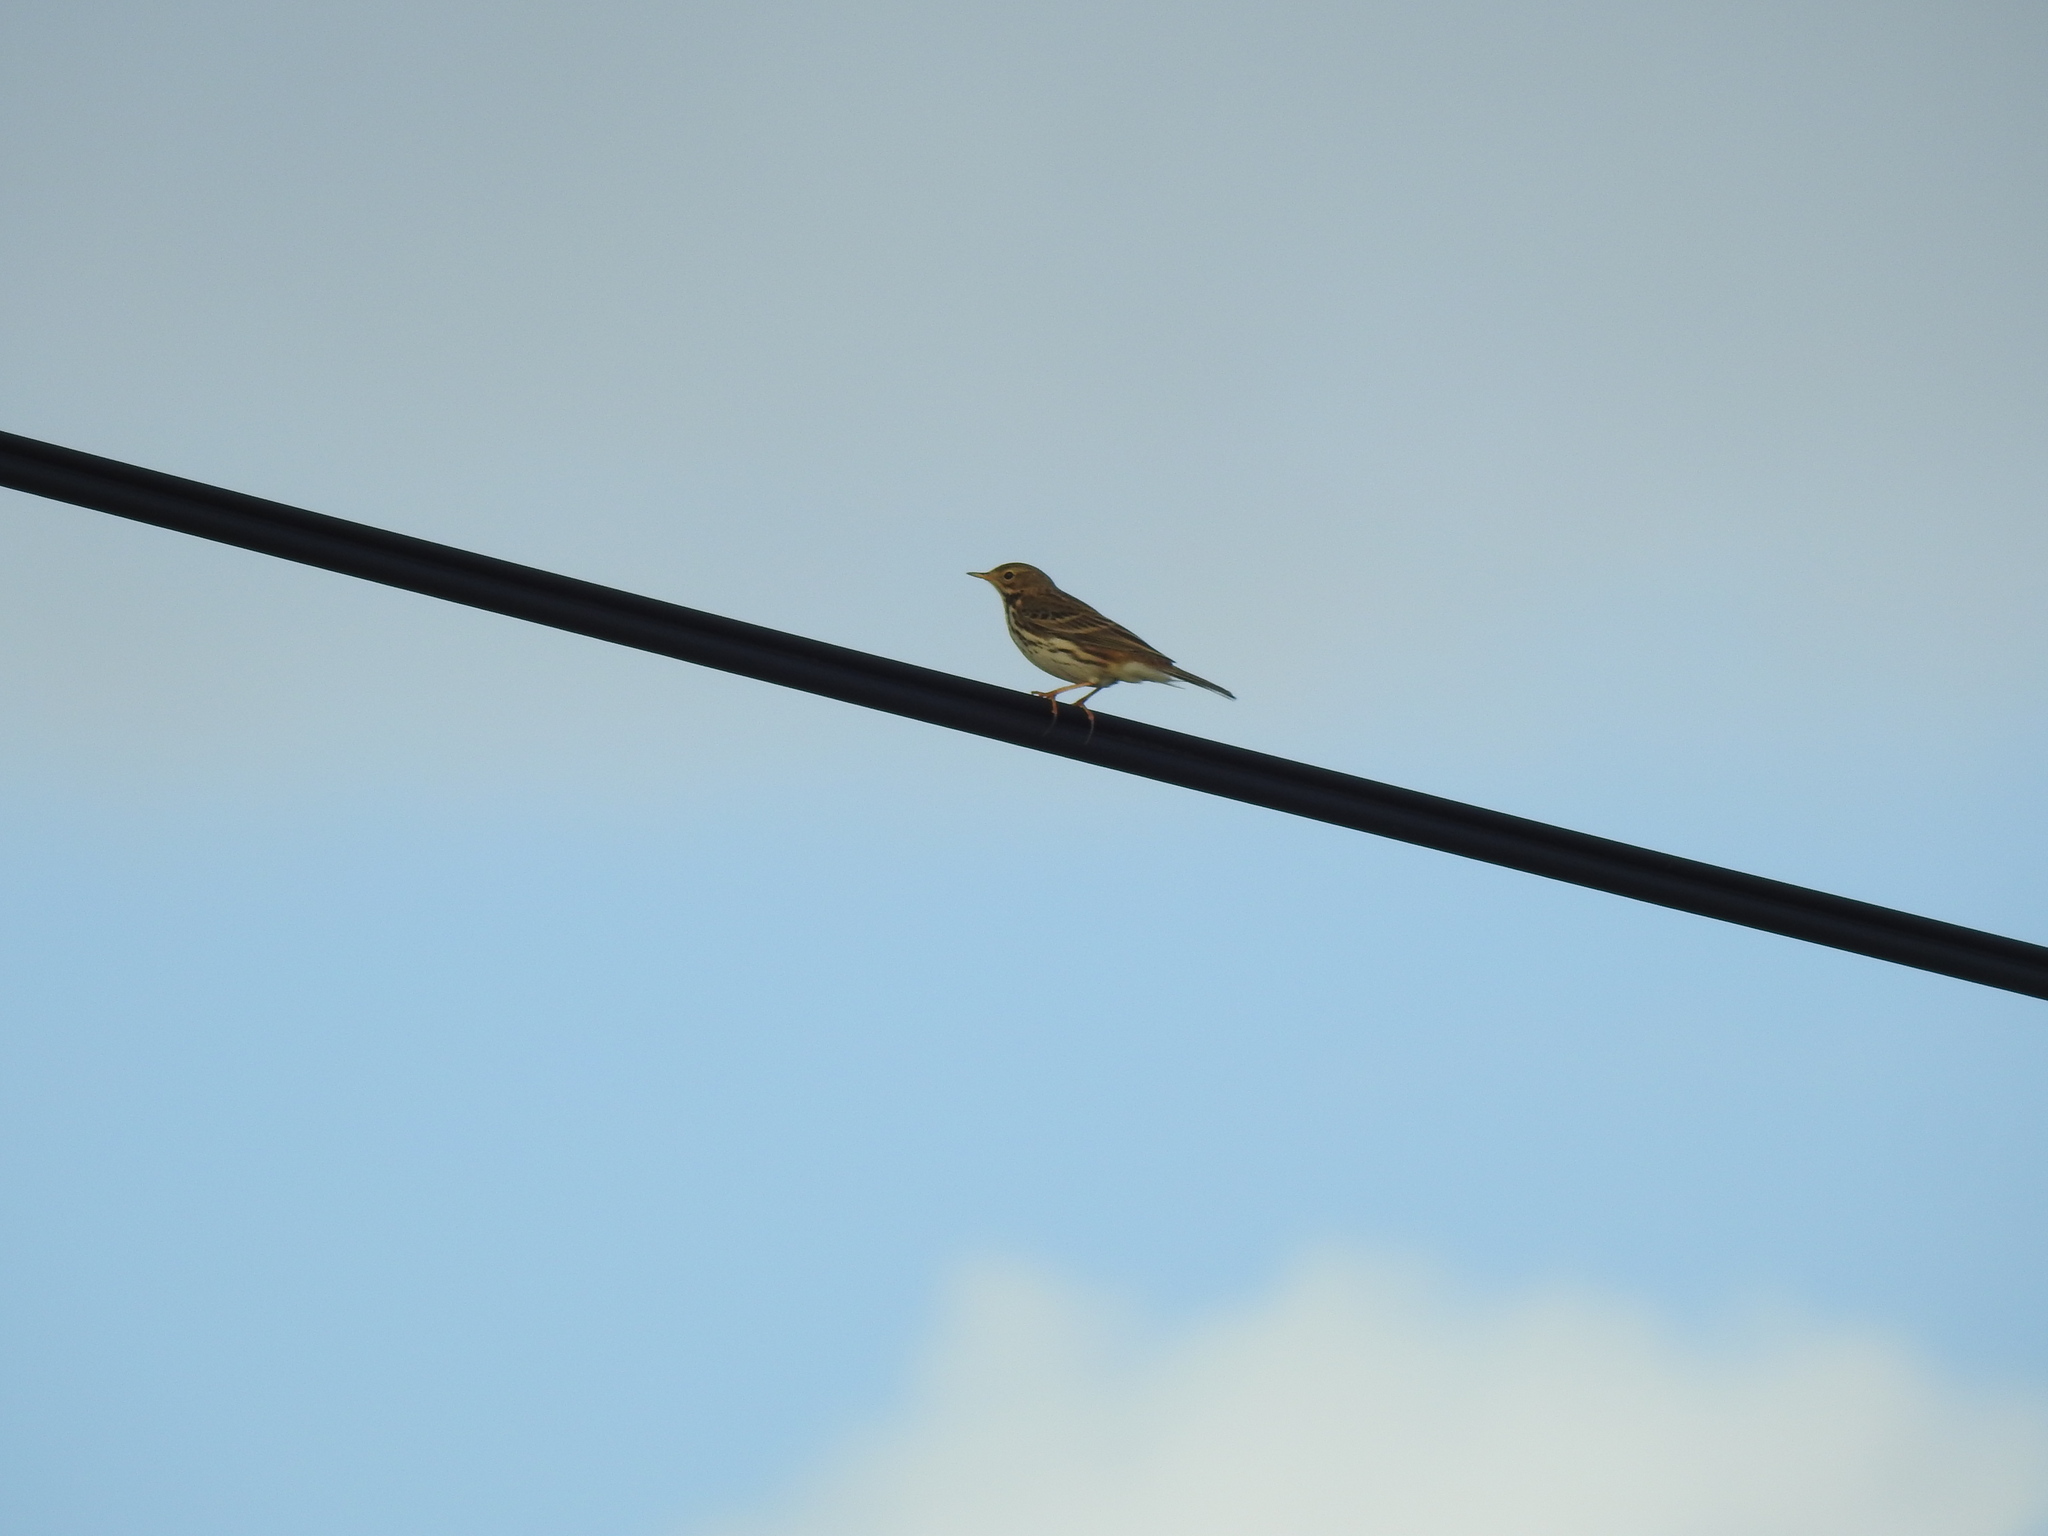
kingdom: Animalia
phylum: Chordata
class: Aves
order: Passeriformes
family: Motacillidae
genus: Anthus
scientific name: Anthus pratensis
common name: Meadow pipit
